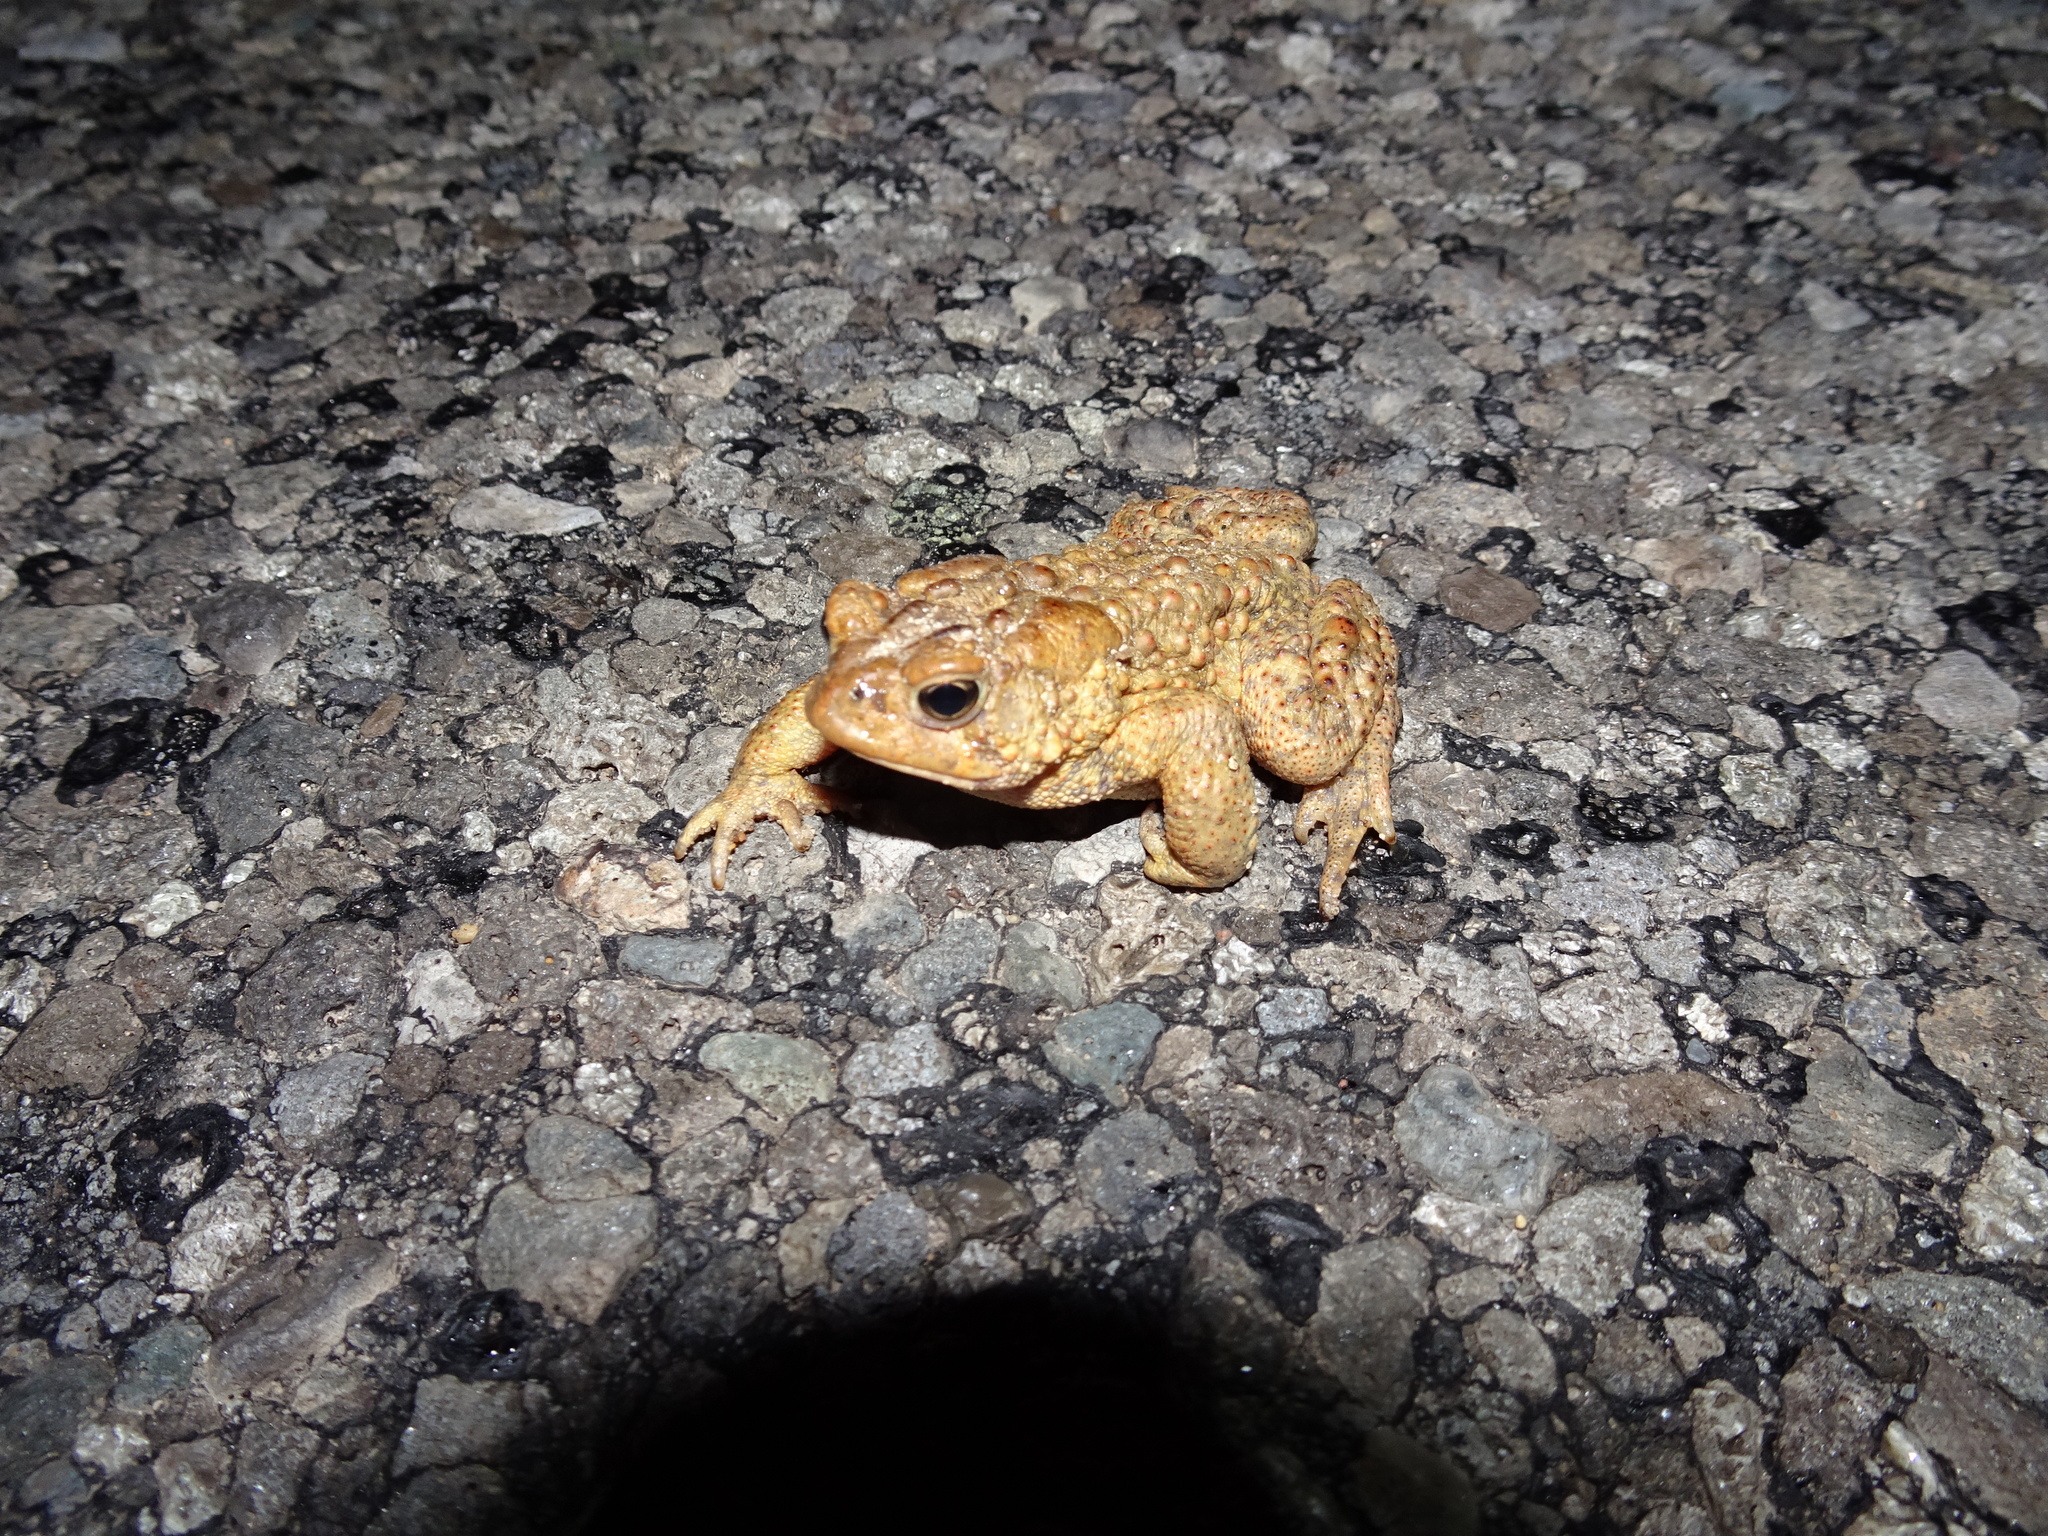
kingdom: Animalia
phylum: Chordata
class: Amphibia
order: Anura
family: Bufonidae
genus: Anaxyrus
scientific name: Anaxyrus americanus
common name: American toad
